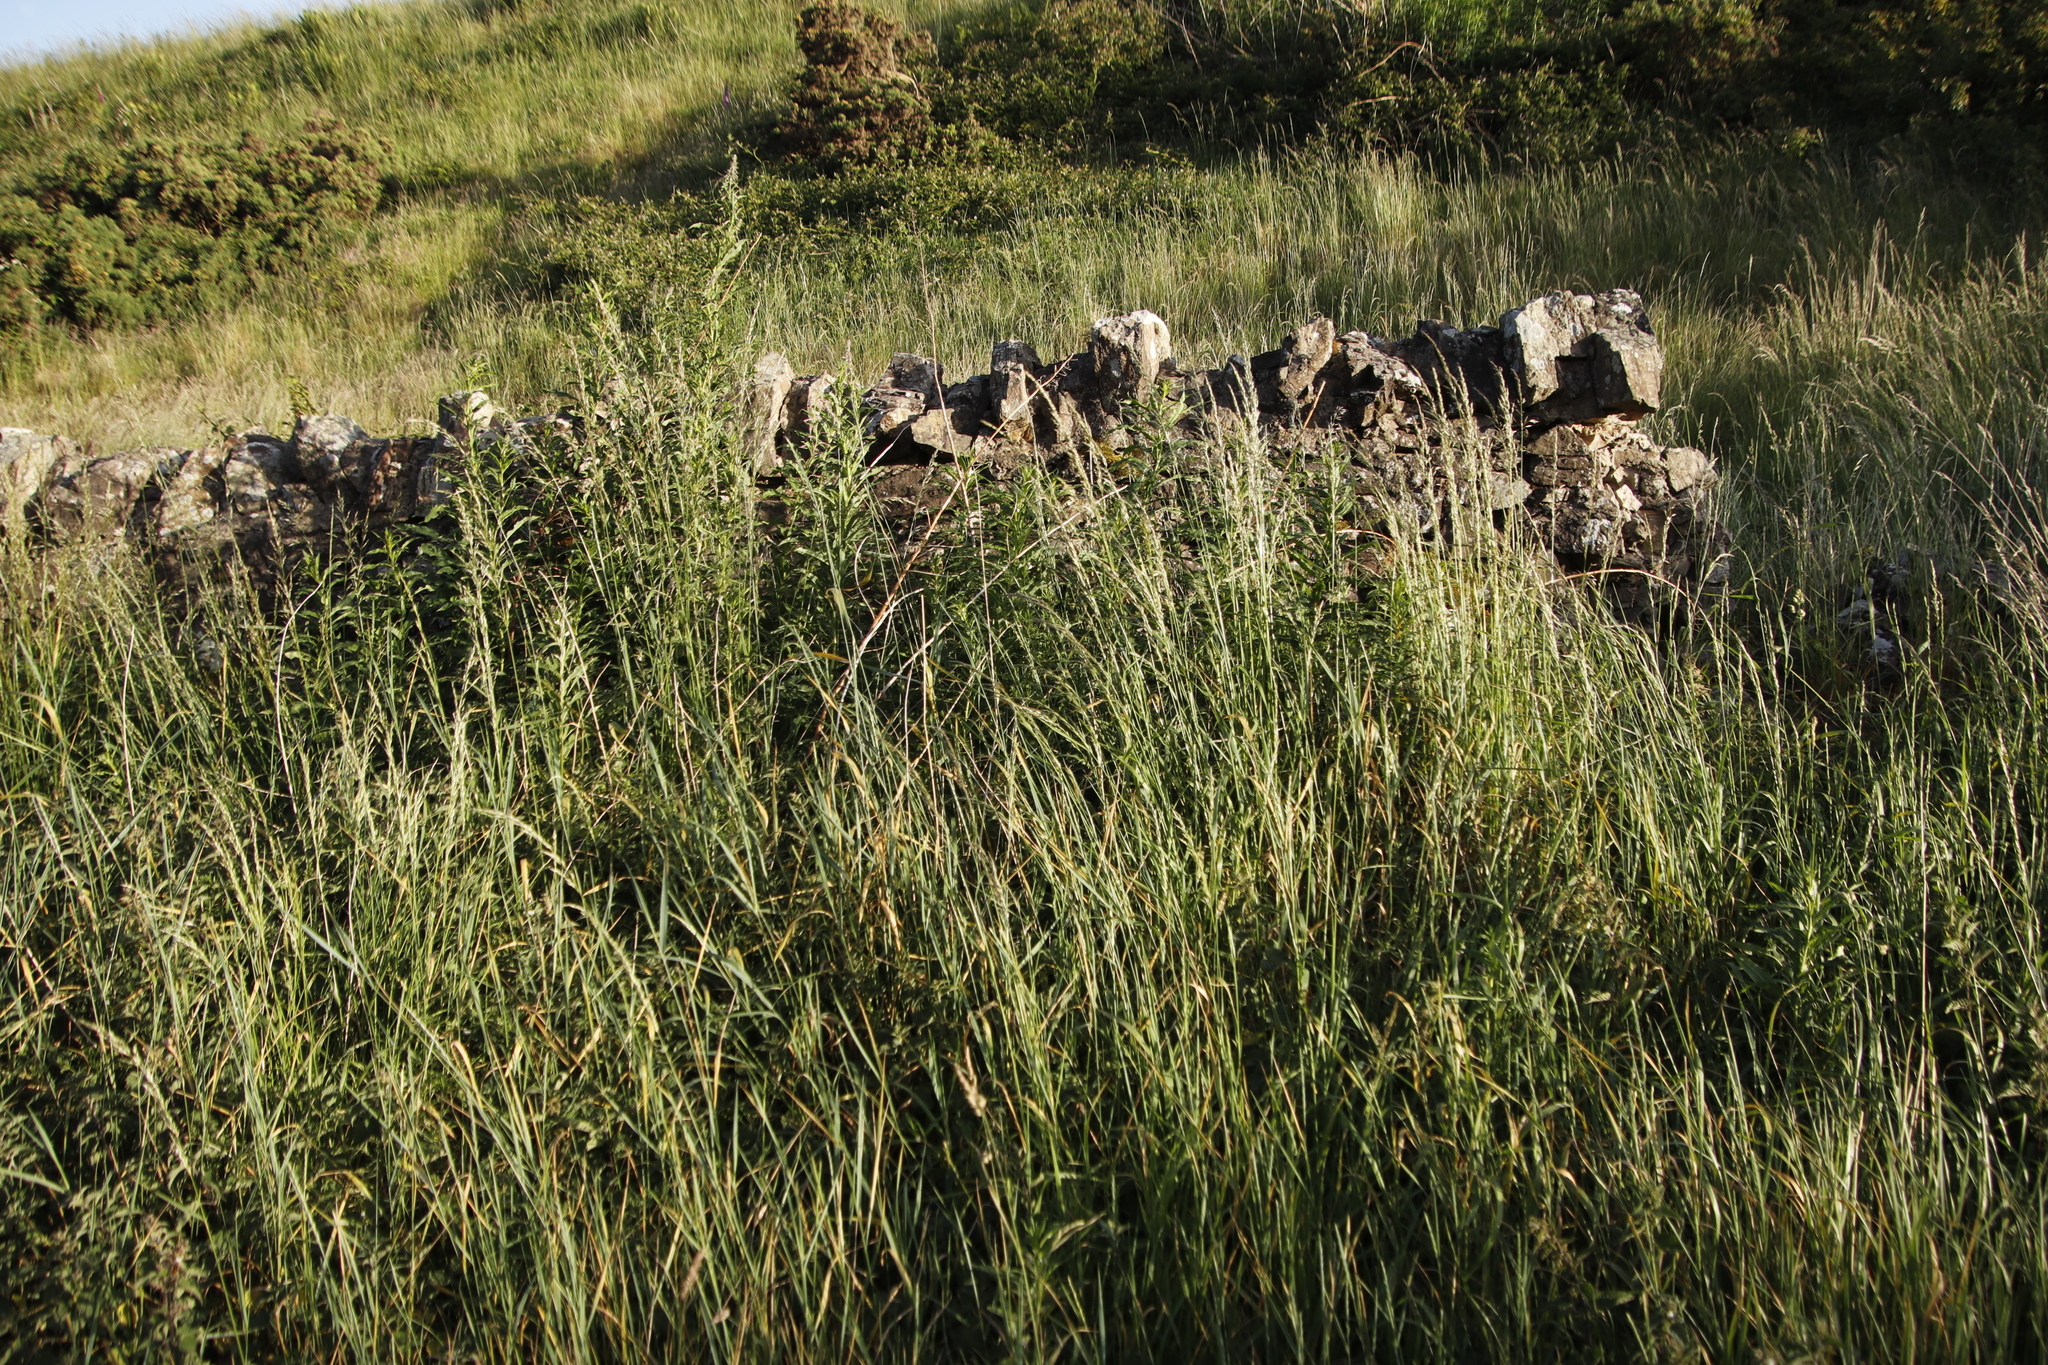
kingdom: Plantae
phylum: Tracheophyta
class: Liliopsida
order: Poales
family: Poaceae
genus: Arrhenatherum
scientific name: Arrhenatherum elatius
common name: Tall oatgrass
